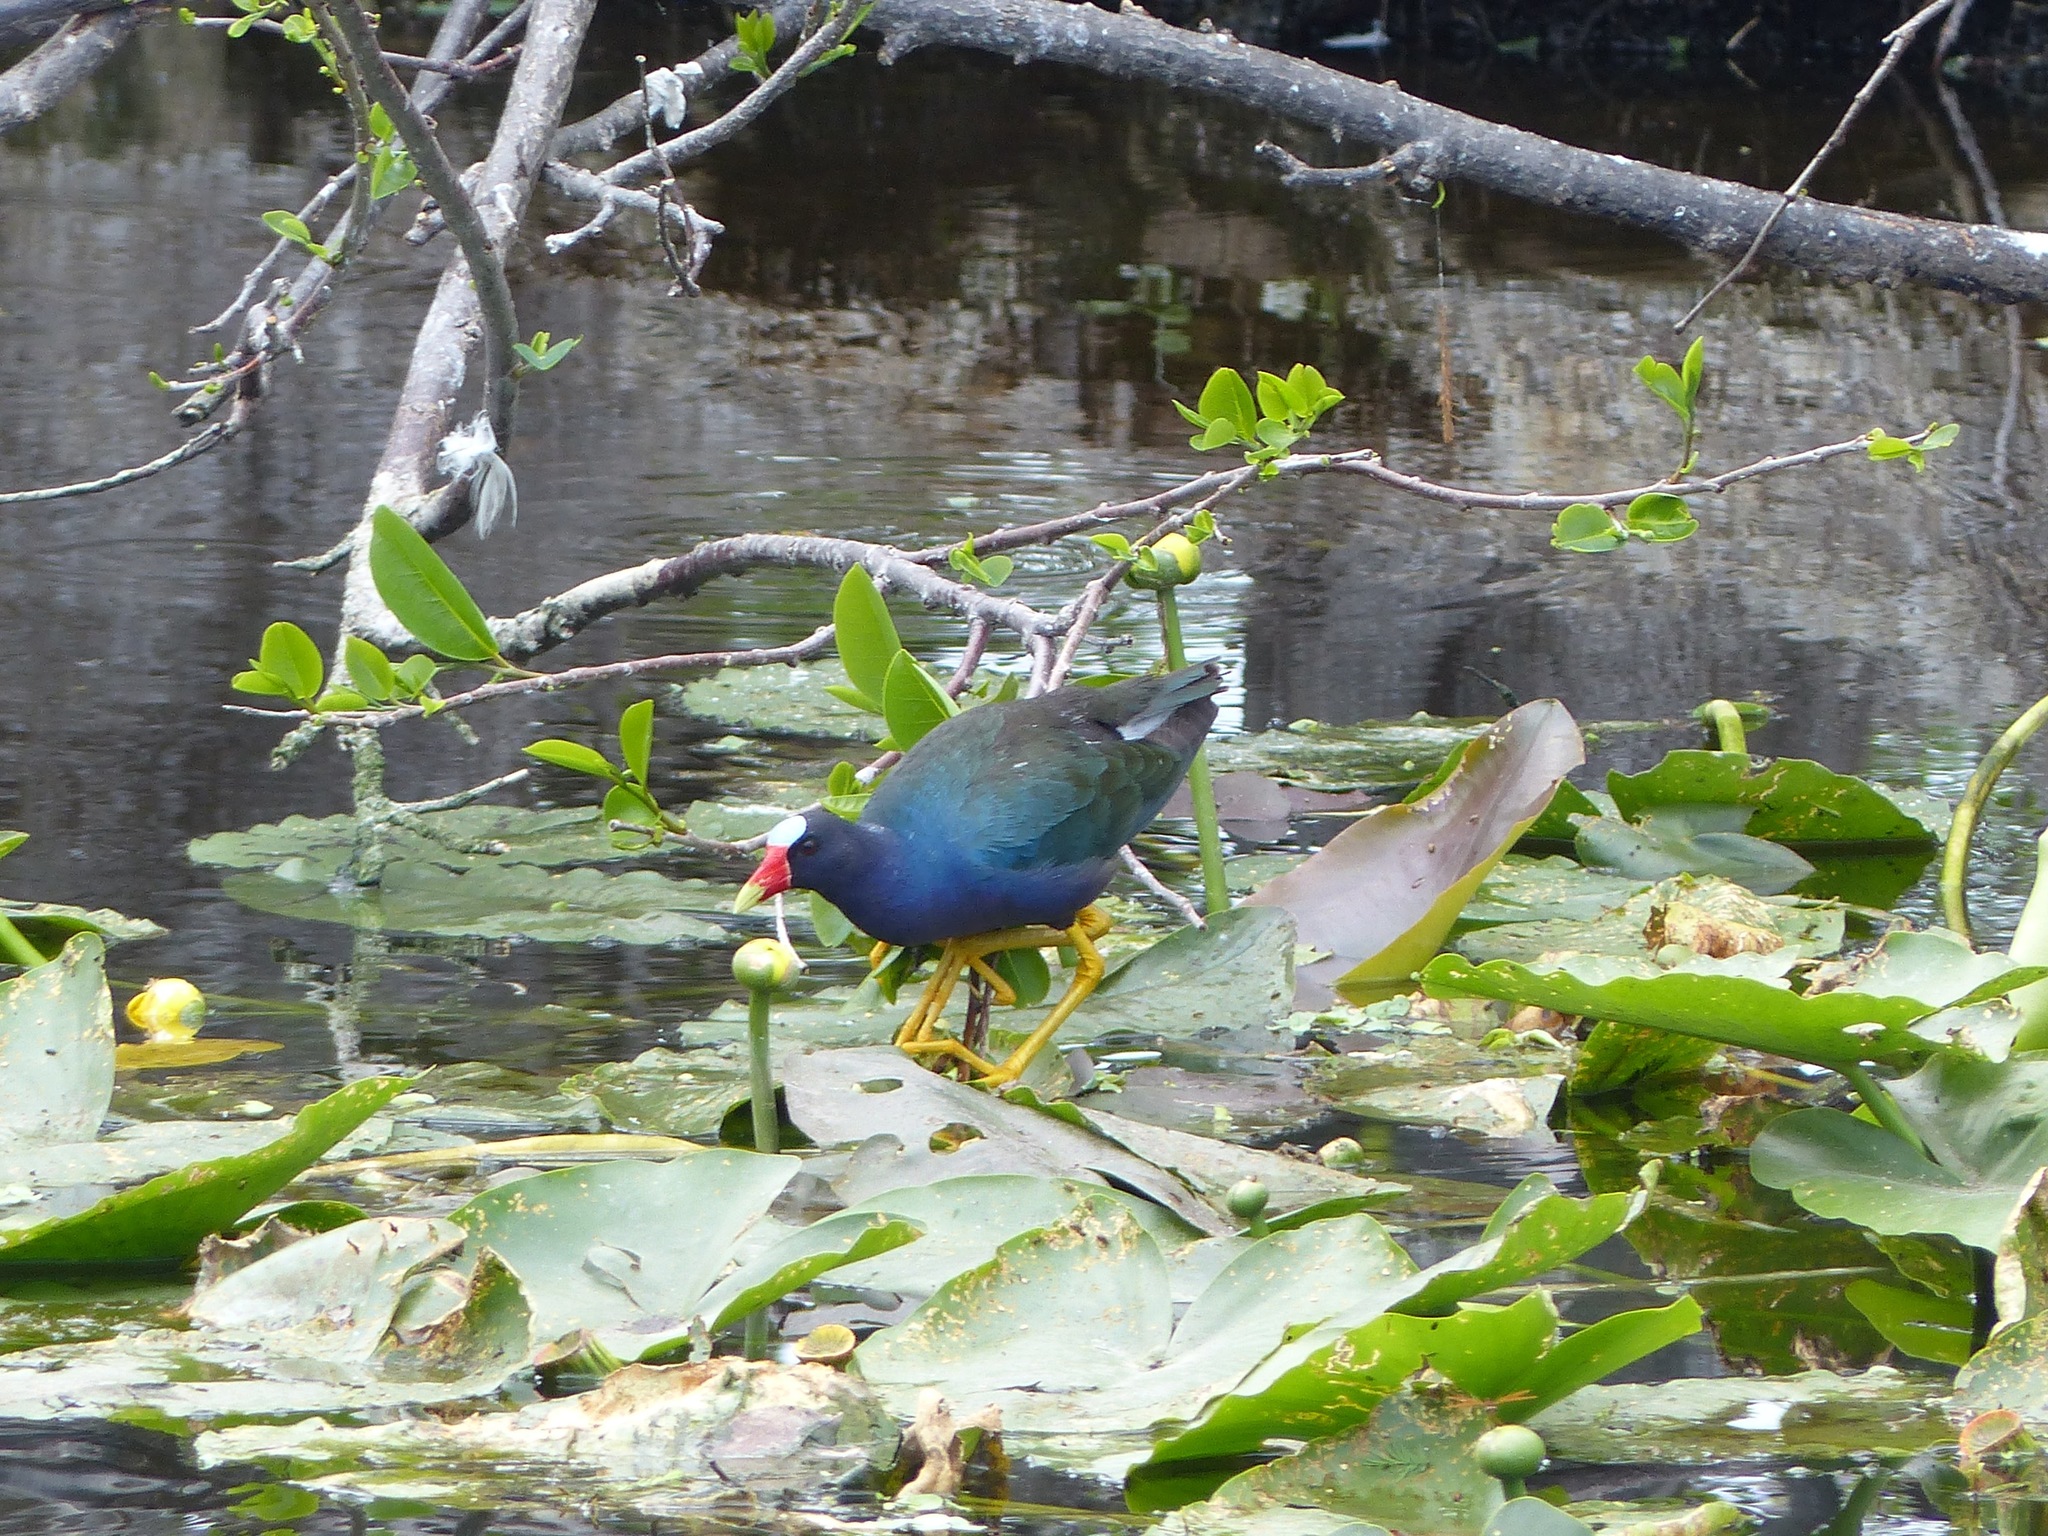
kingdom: Animalia
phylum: Chordata
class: Aves
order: Gruiformes
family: Rallidae
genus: Porphyrio
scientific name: Porphyrio martinica
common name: Purple gallinule
